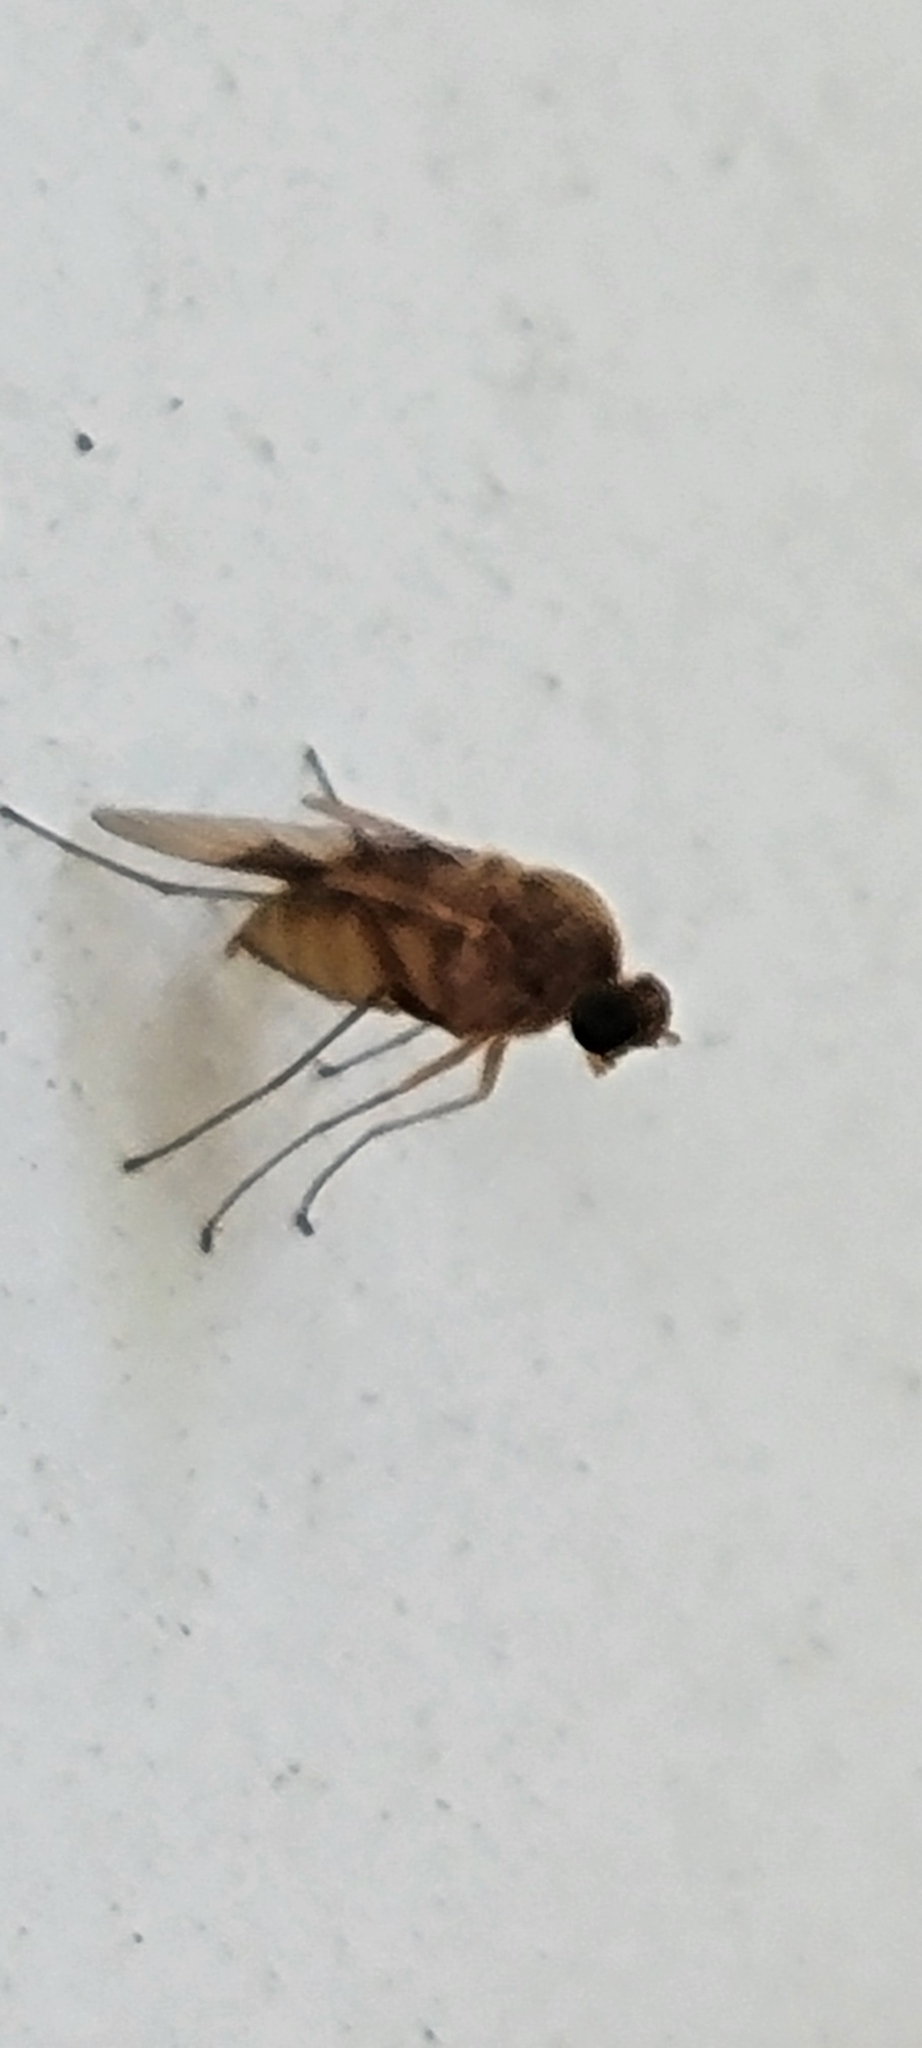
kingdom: Animalia
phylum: Arthropoda
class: Insecta
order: Diptera
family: Rhagionidae
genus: Chrysopilus
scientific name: Chrysopilus quadratus
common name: Quadrate snipe fly
